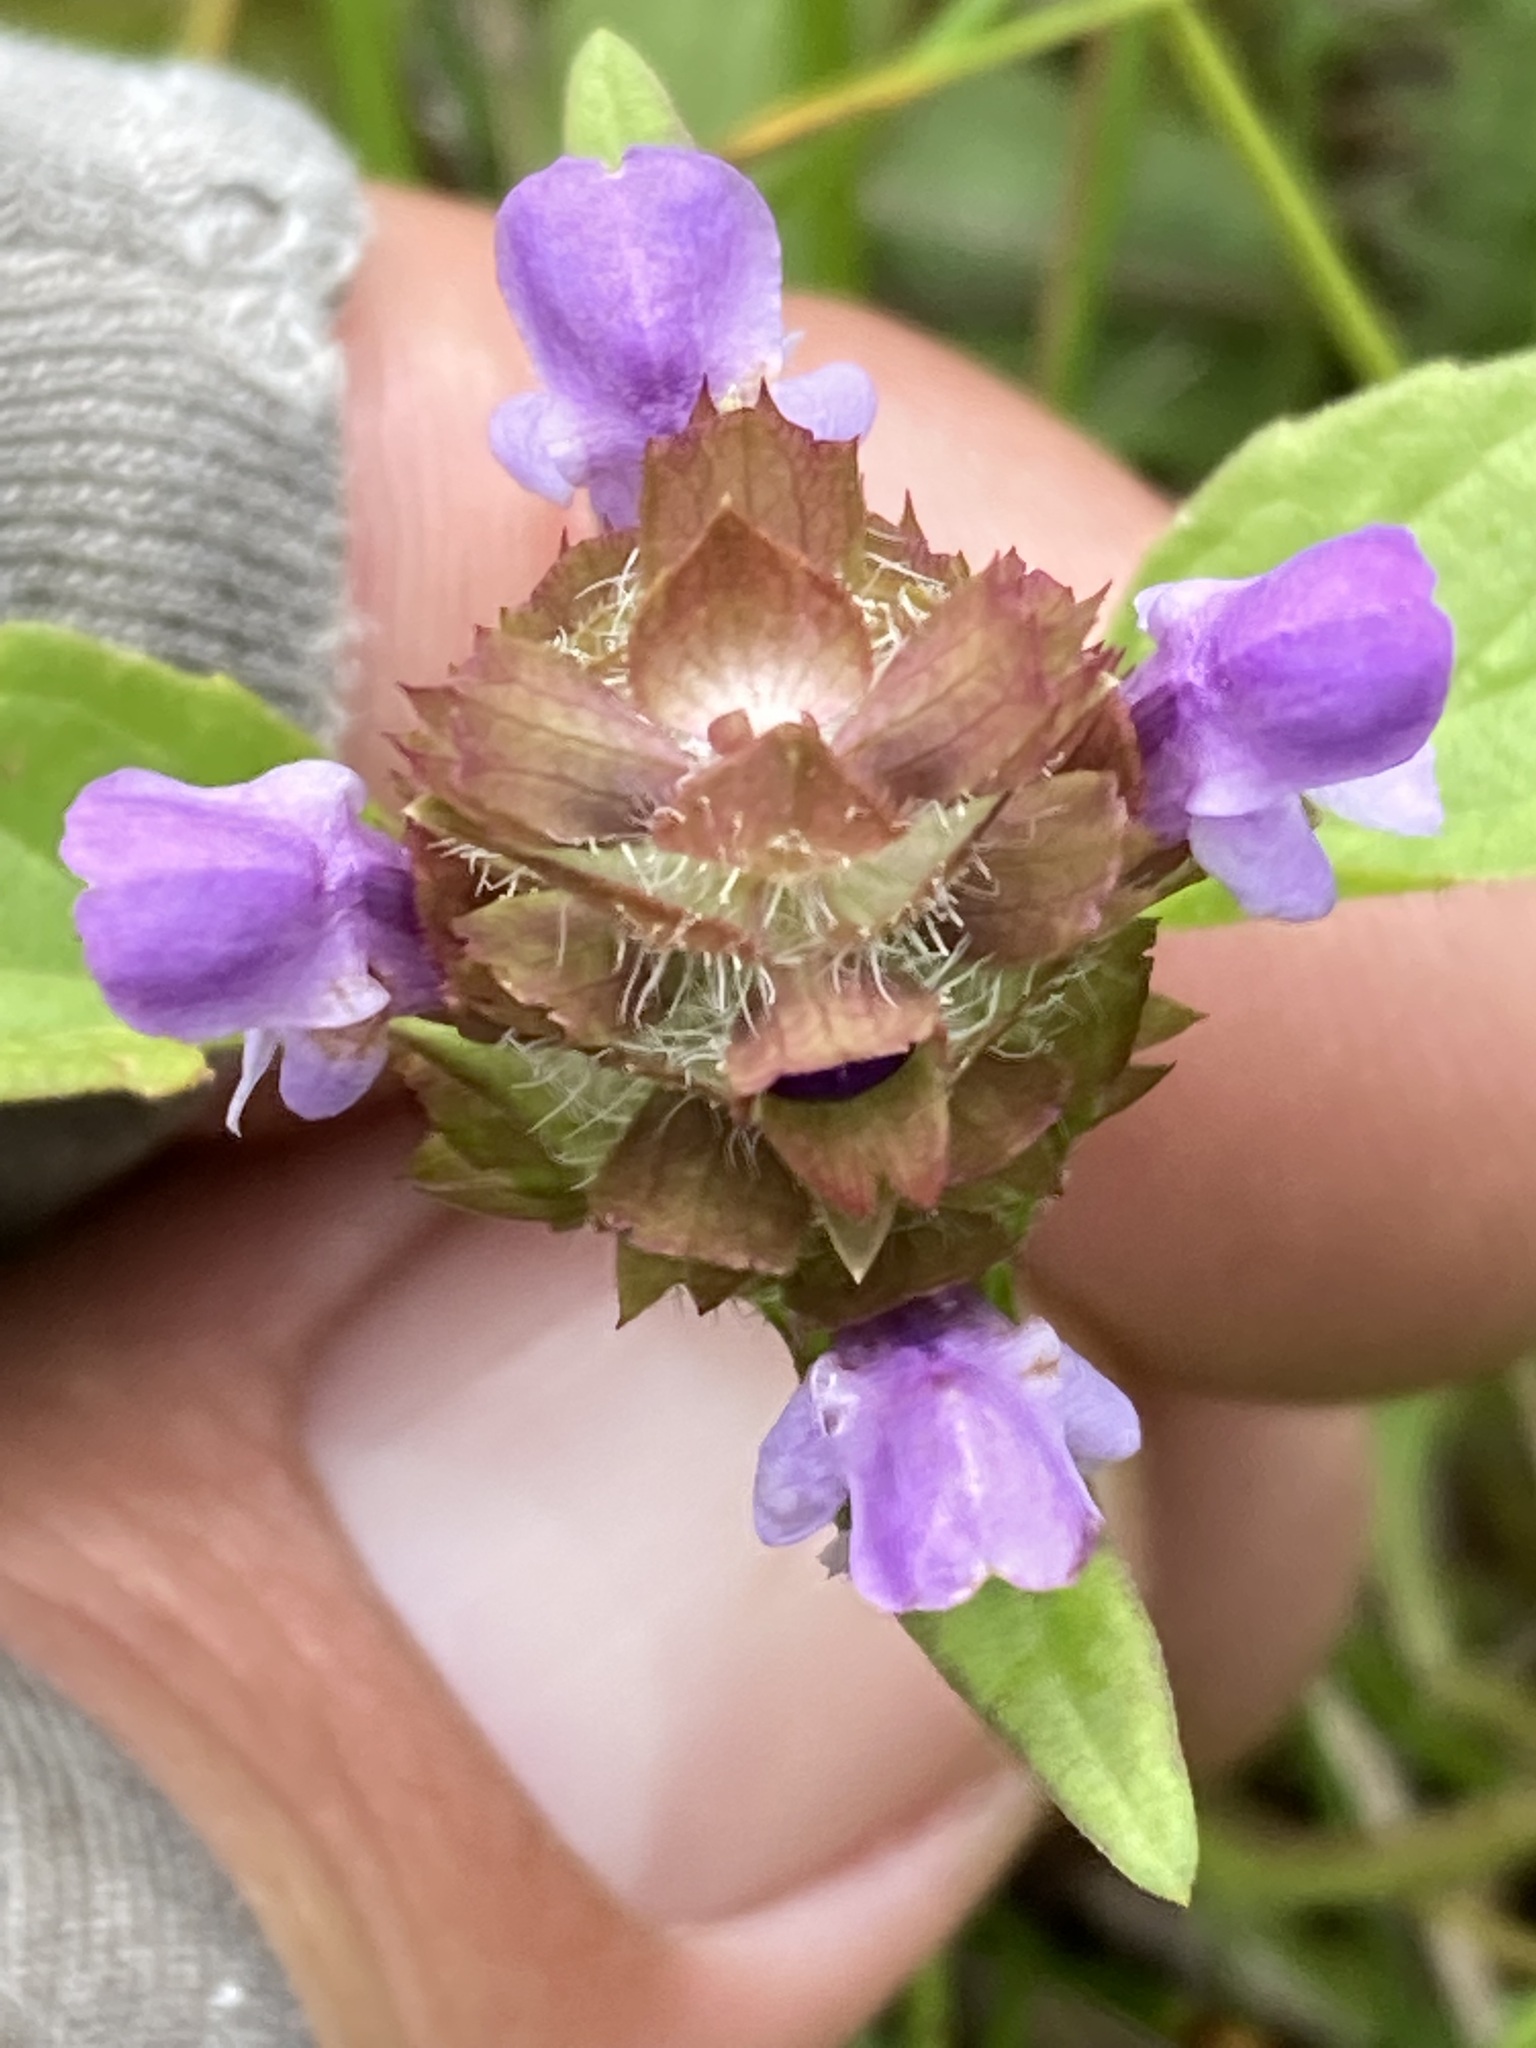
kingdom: Plantae
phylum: Tracheophyta
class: Magnoliopsida
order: Lamiales
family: Lamiaceae
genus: Prunella
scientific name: Prunella vulgaris
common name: Heal-all
